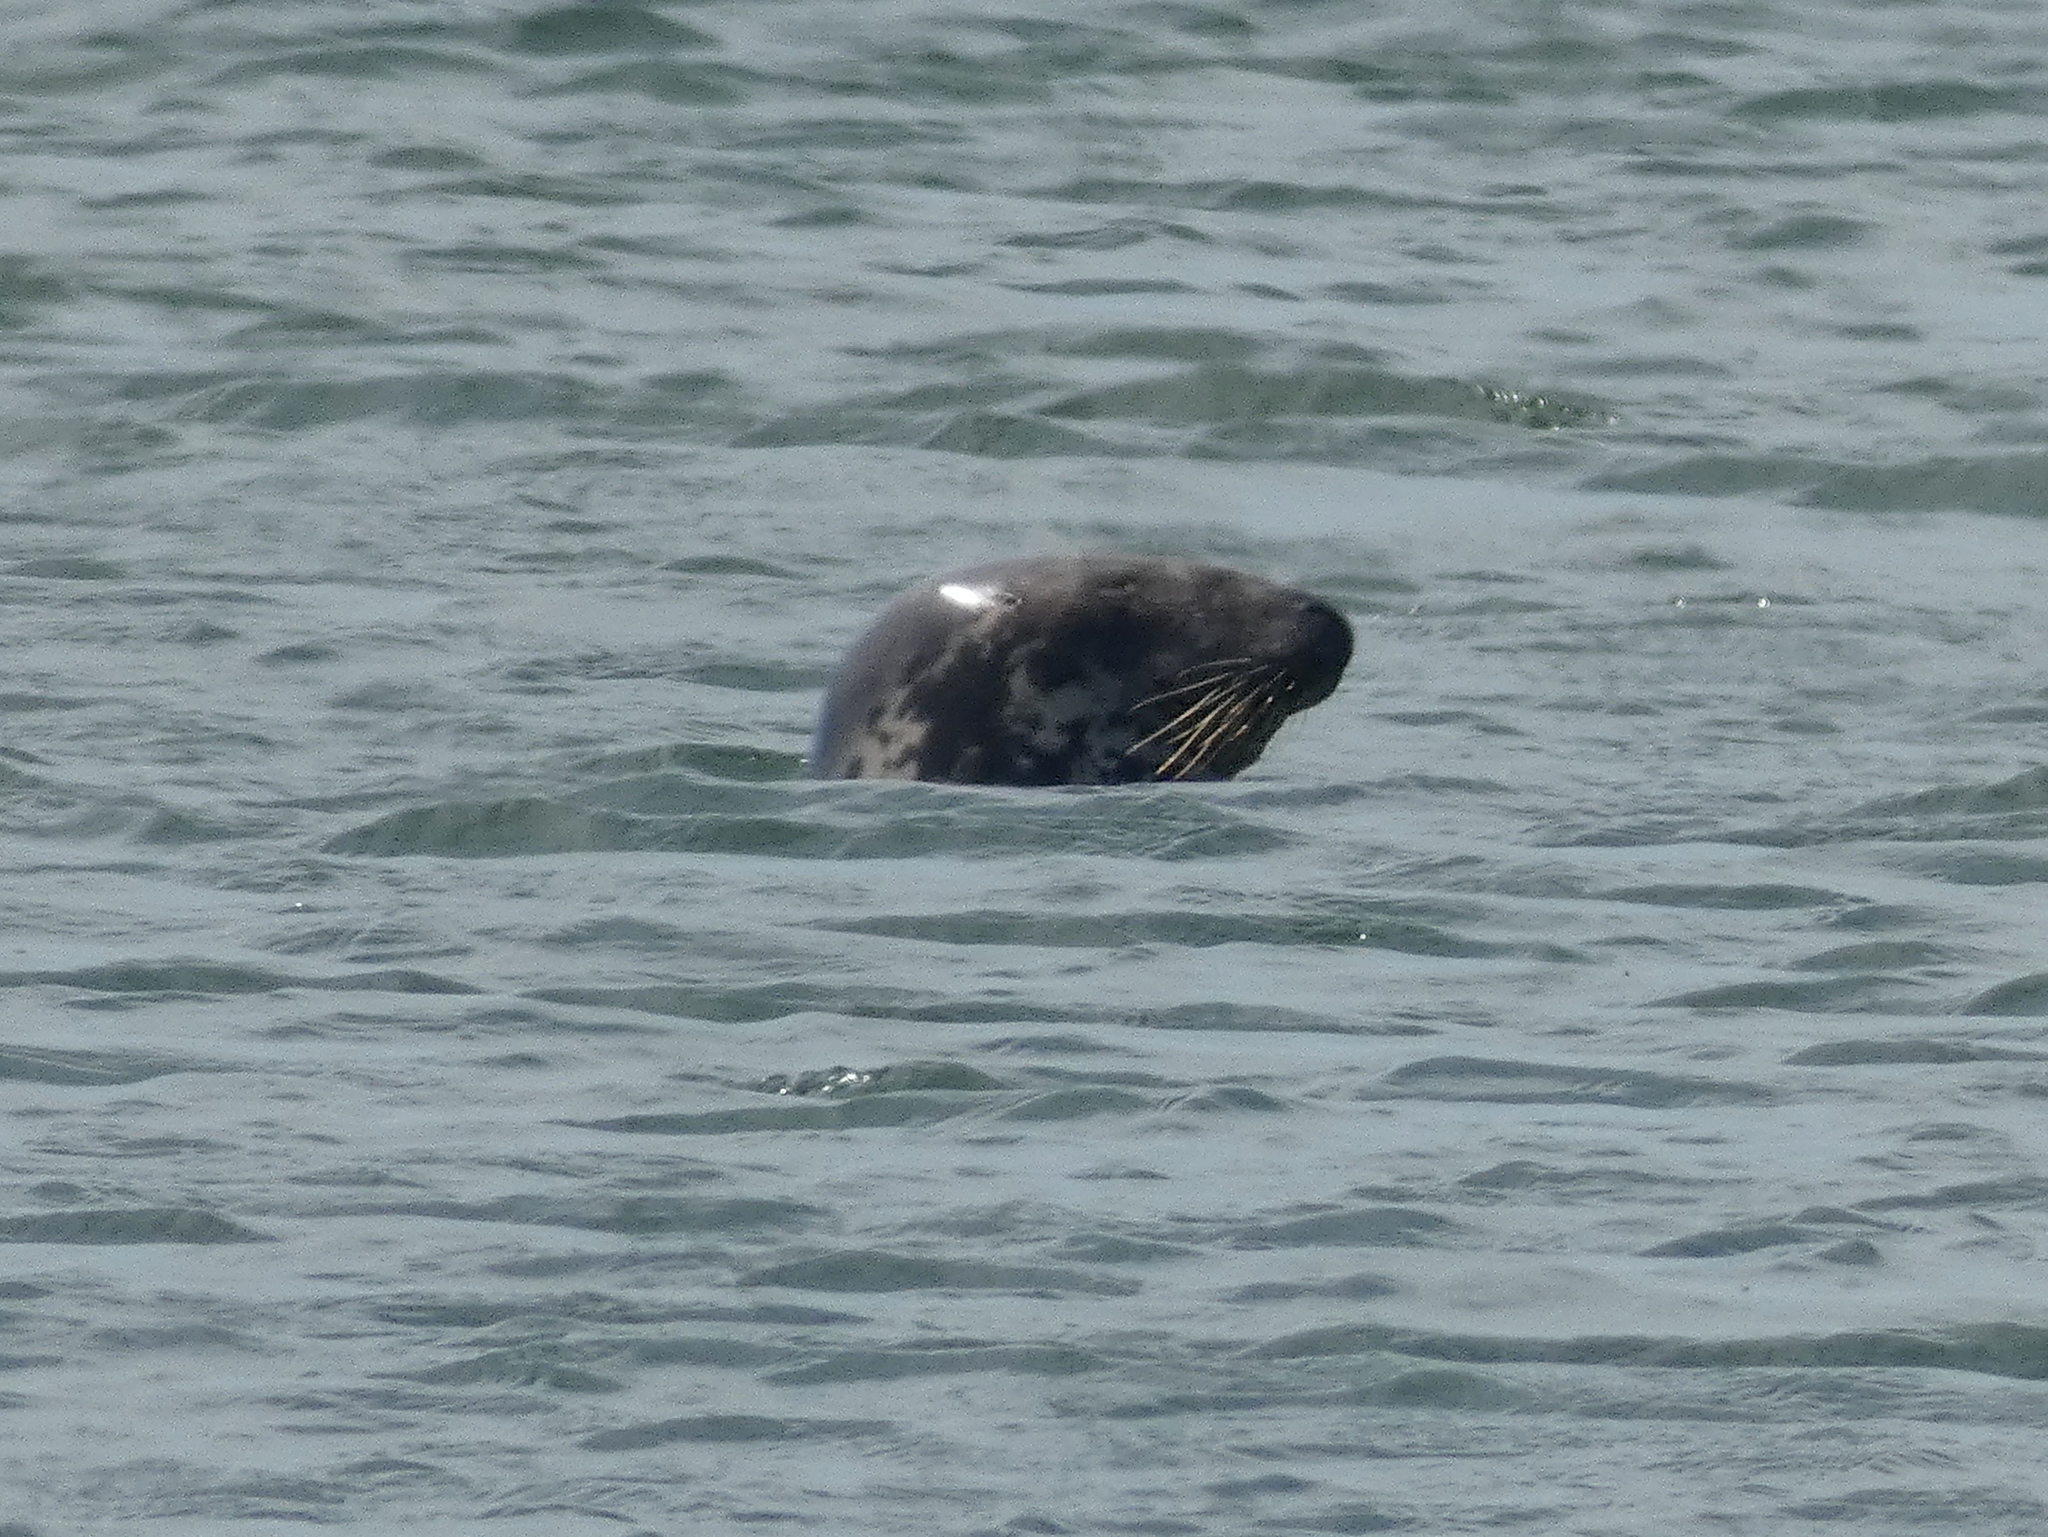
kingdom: Animalia
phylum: Chordata
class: Mammalia
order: Carnivora
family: Phocidae
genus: Halichoerus
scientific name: Halichoerus grypus
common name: Grey seal
